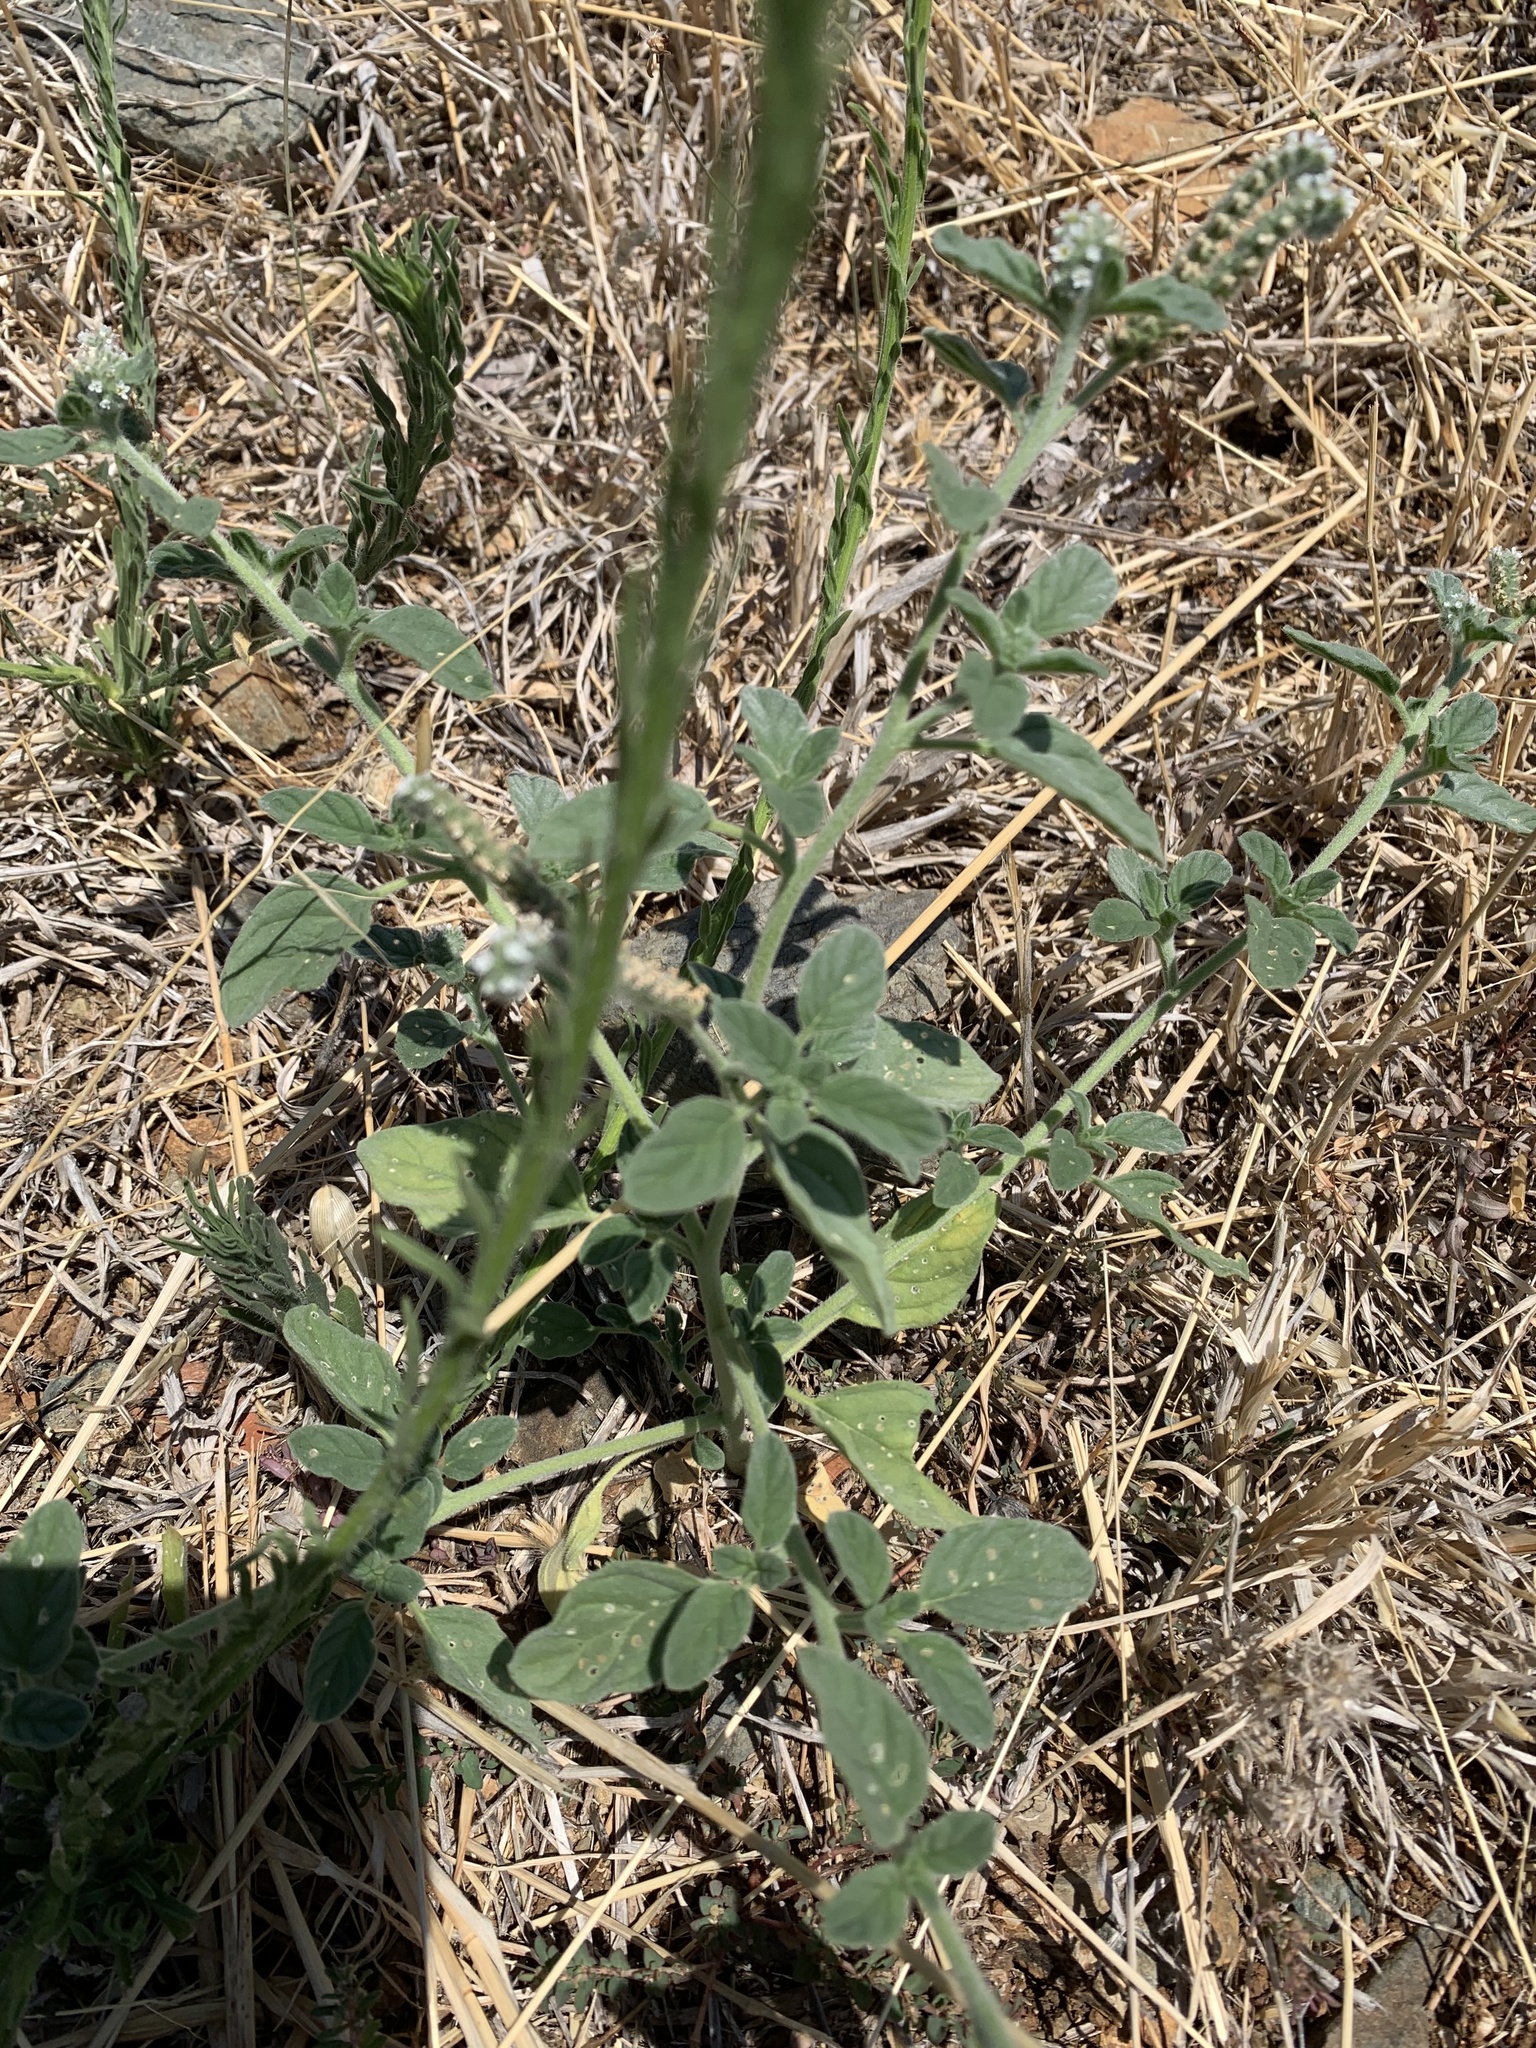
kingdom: Plantae
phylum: Tracheophyta
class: Magnoliopsida
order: Boraginales
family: Heliotropiaceae
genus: Heliotropium
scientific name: Heliotropium europaeum
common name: European heliotrope
